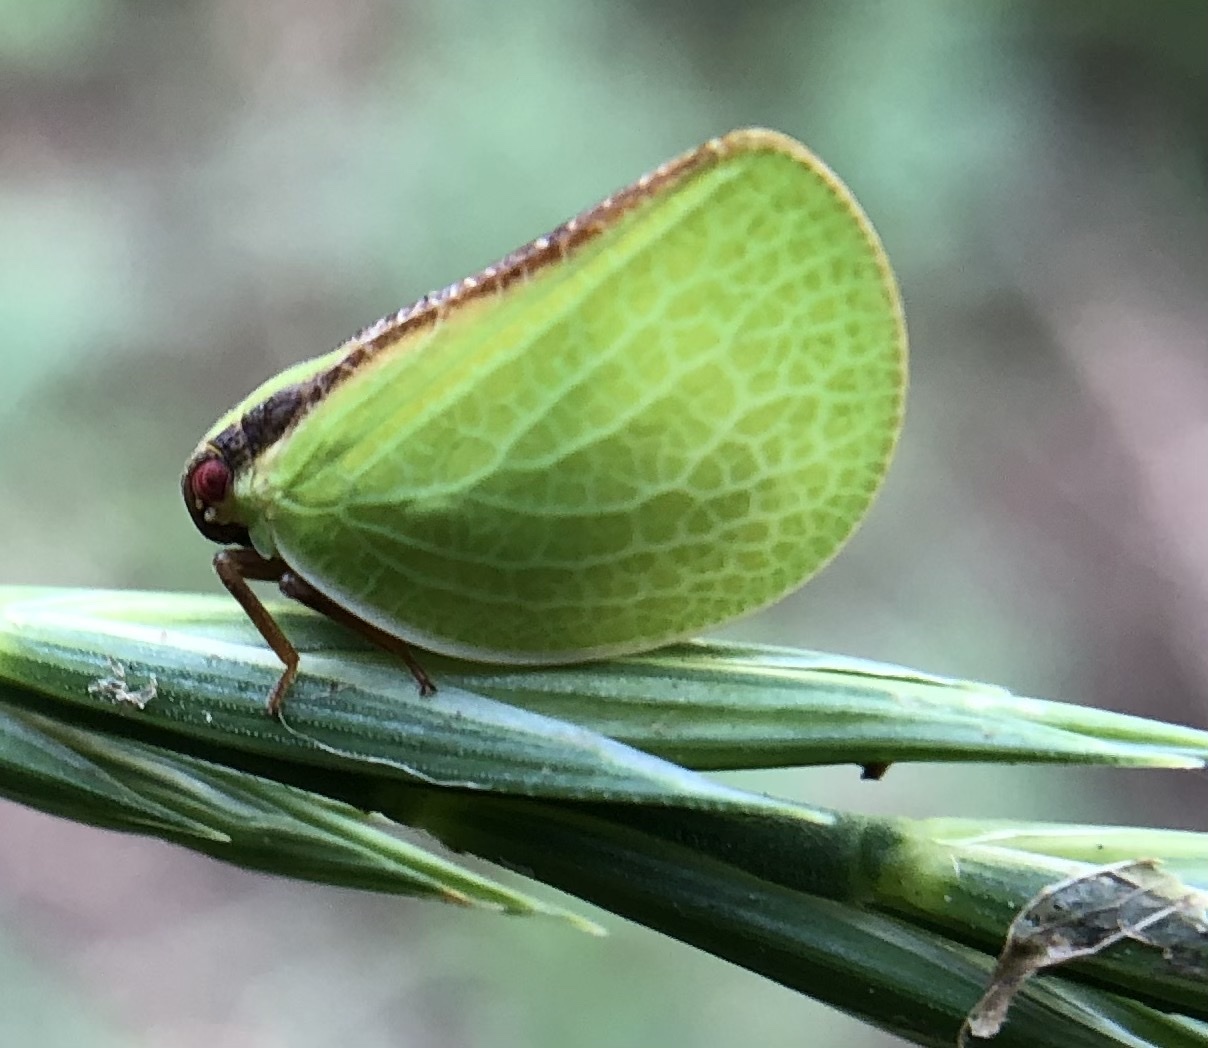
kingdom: Animalia
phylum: Arthropoda
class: Insecta
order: Hemiptera
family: Acanaloniidae
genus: Acanalonia
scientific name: Acanalonia bivittata
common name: Two-striped planthopper
